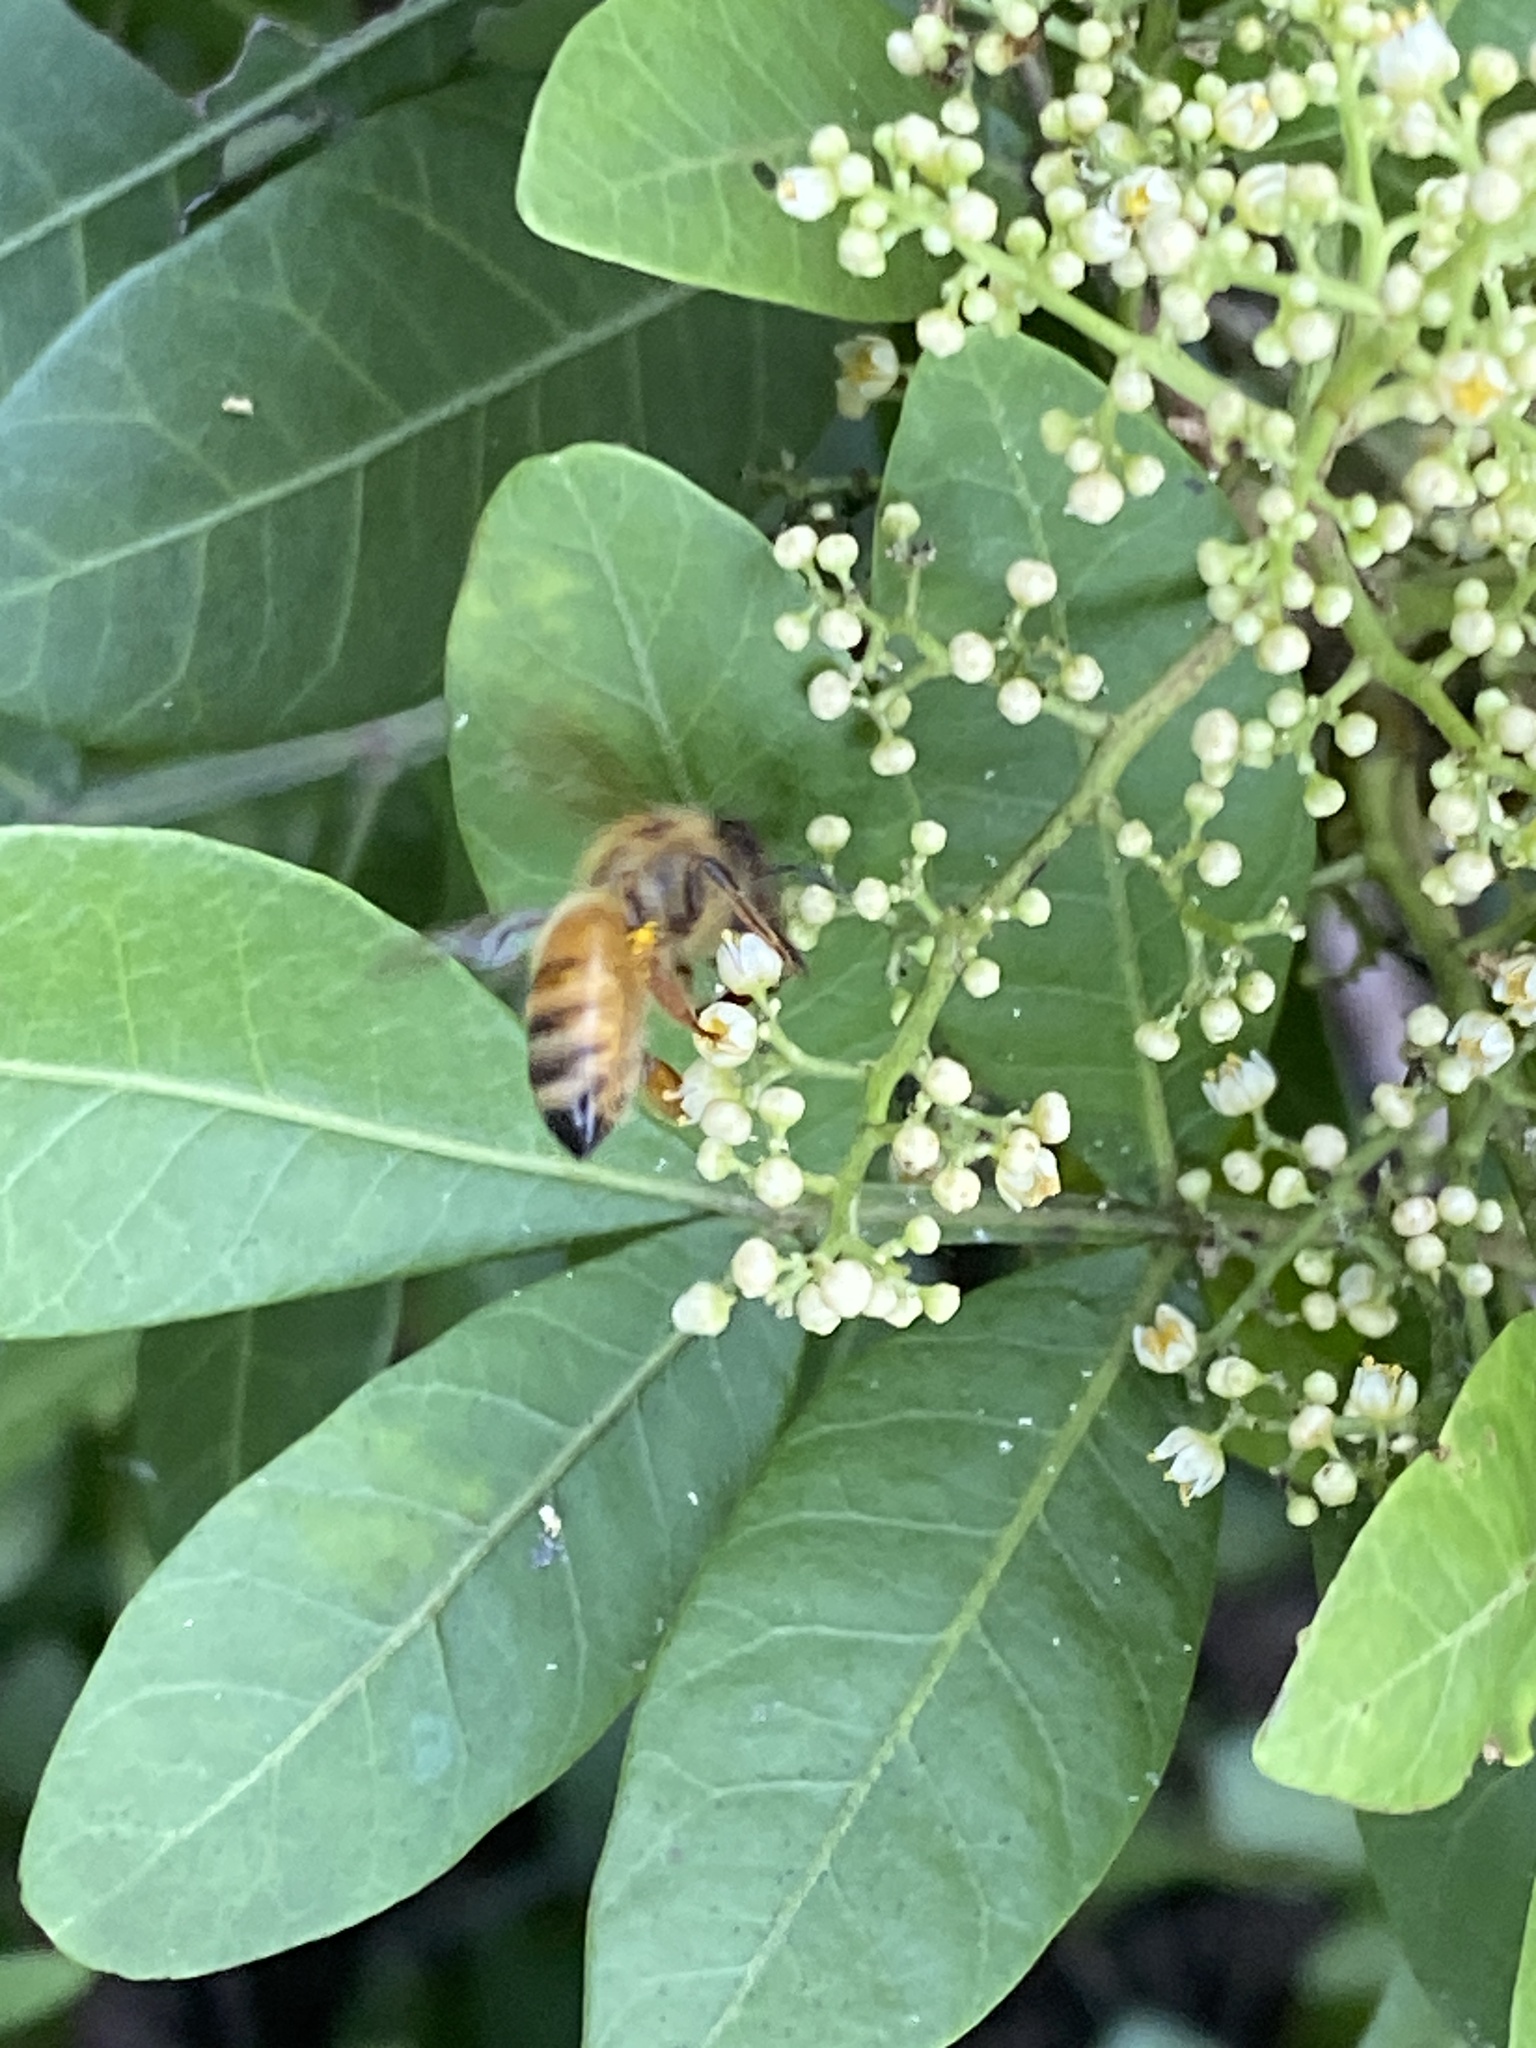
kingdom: Animalia
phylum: Arthropoda
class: Insecta
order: Hymenoptera
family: Apidae
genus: Apis
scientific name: Apis mellifera
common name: Honey bee
